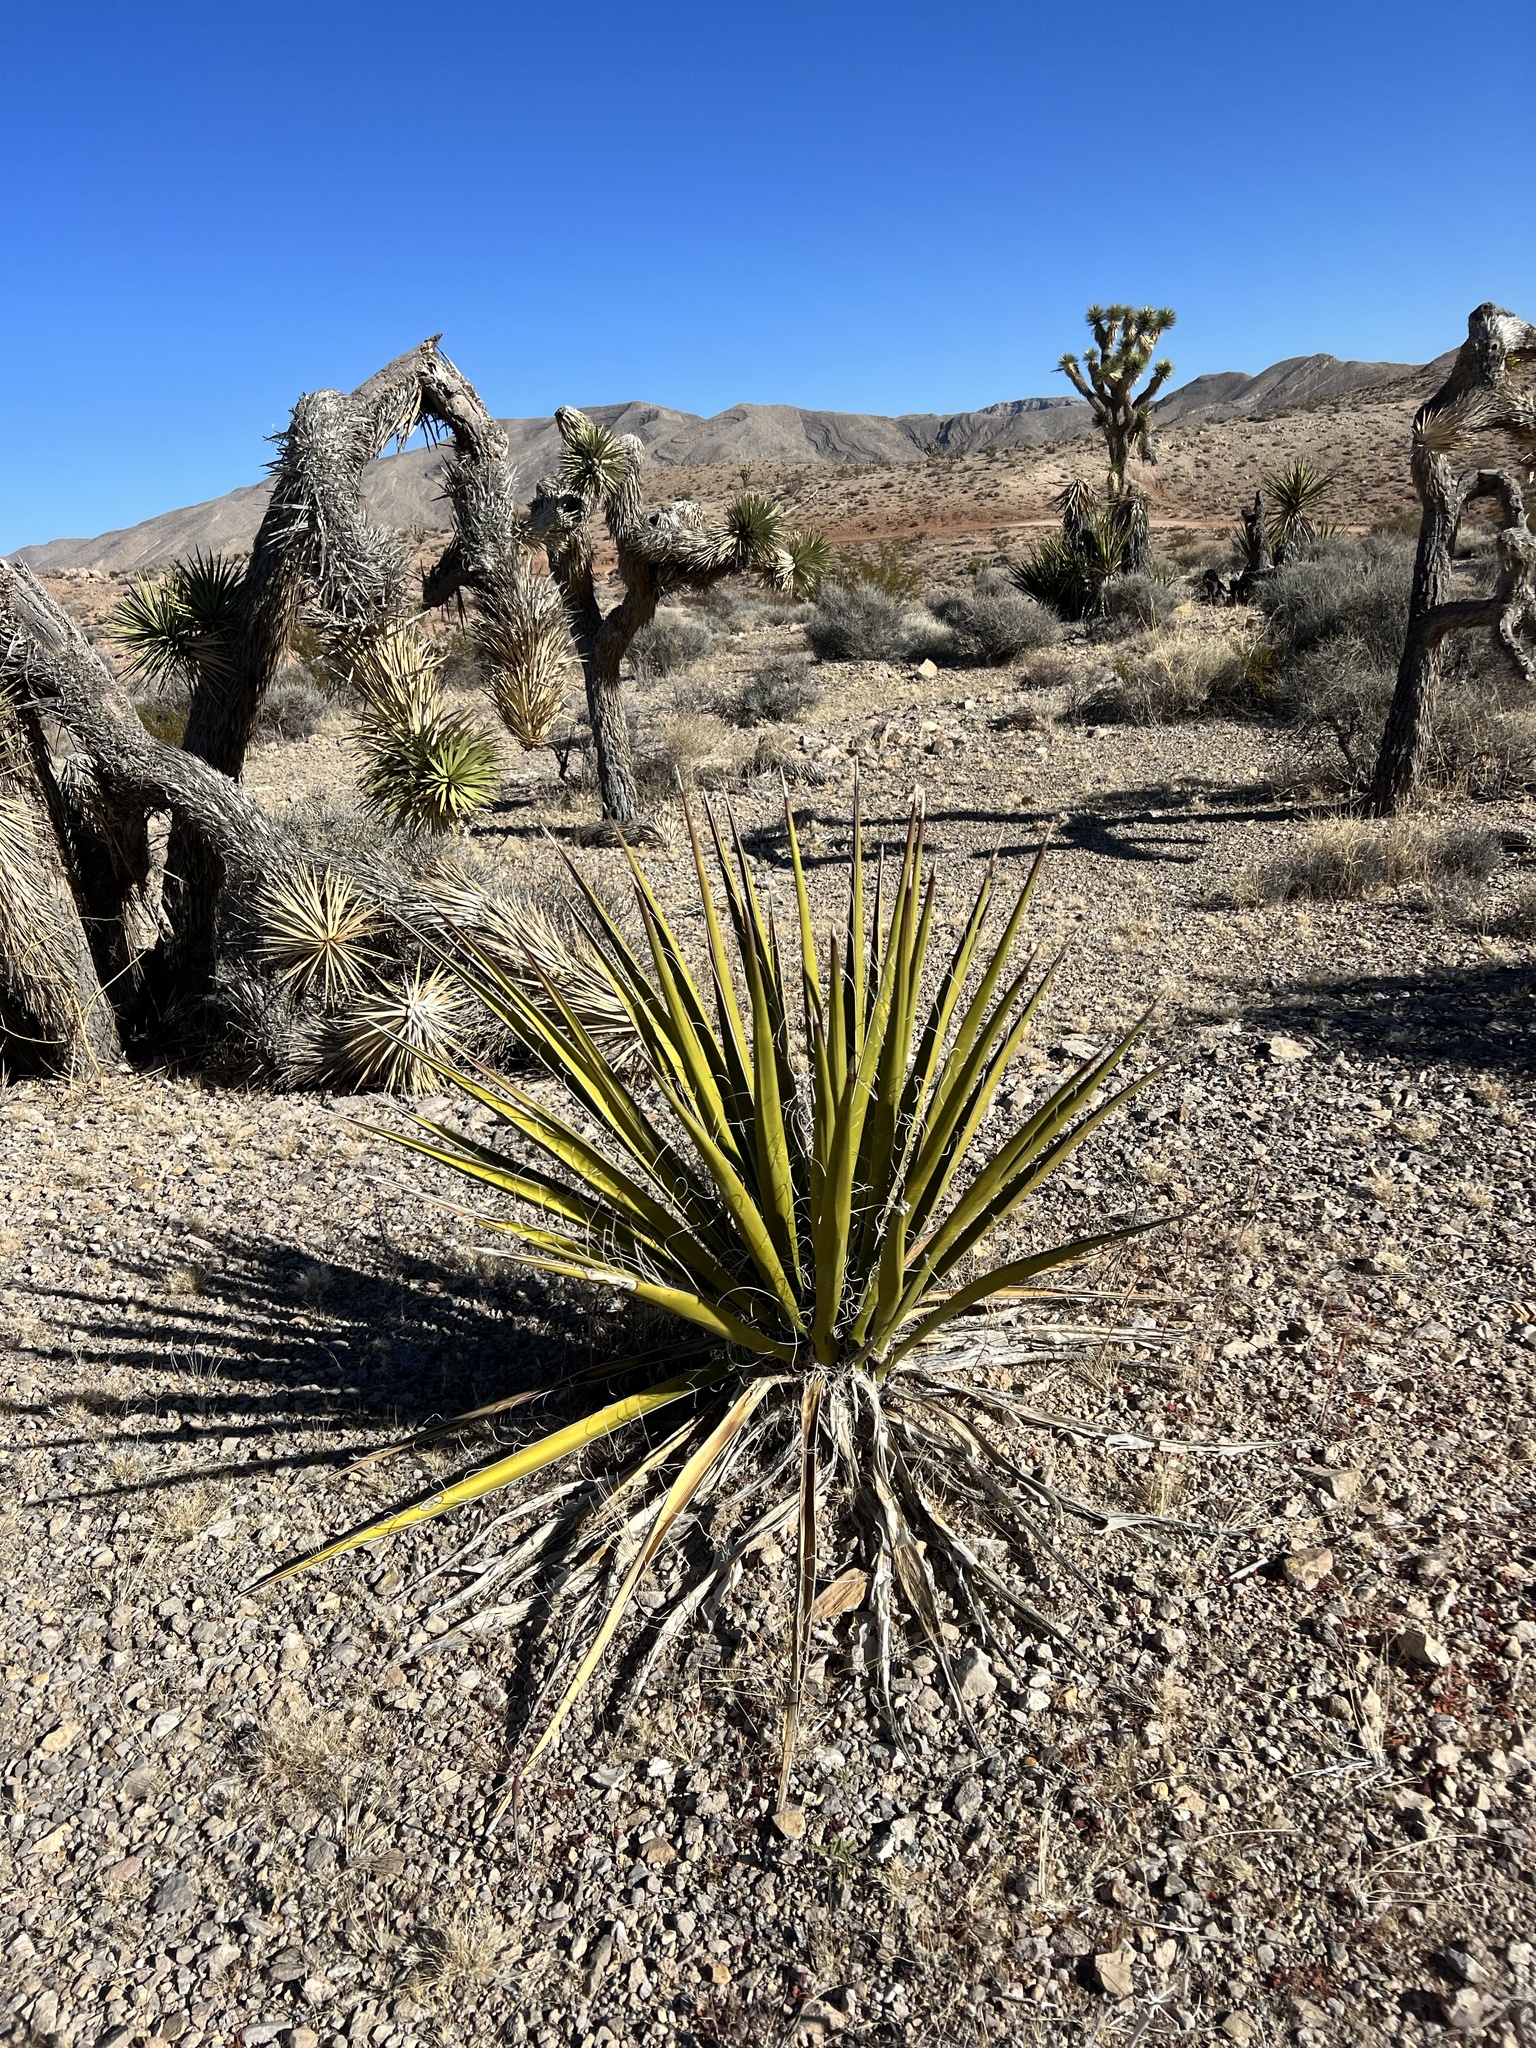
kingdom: Plantae
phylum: Tracheophyta
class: Liliopsida
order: Asparagales
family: Asparagaceae
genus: Yucca
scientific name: Yucca schidigera
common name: Mojave yucca
